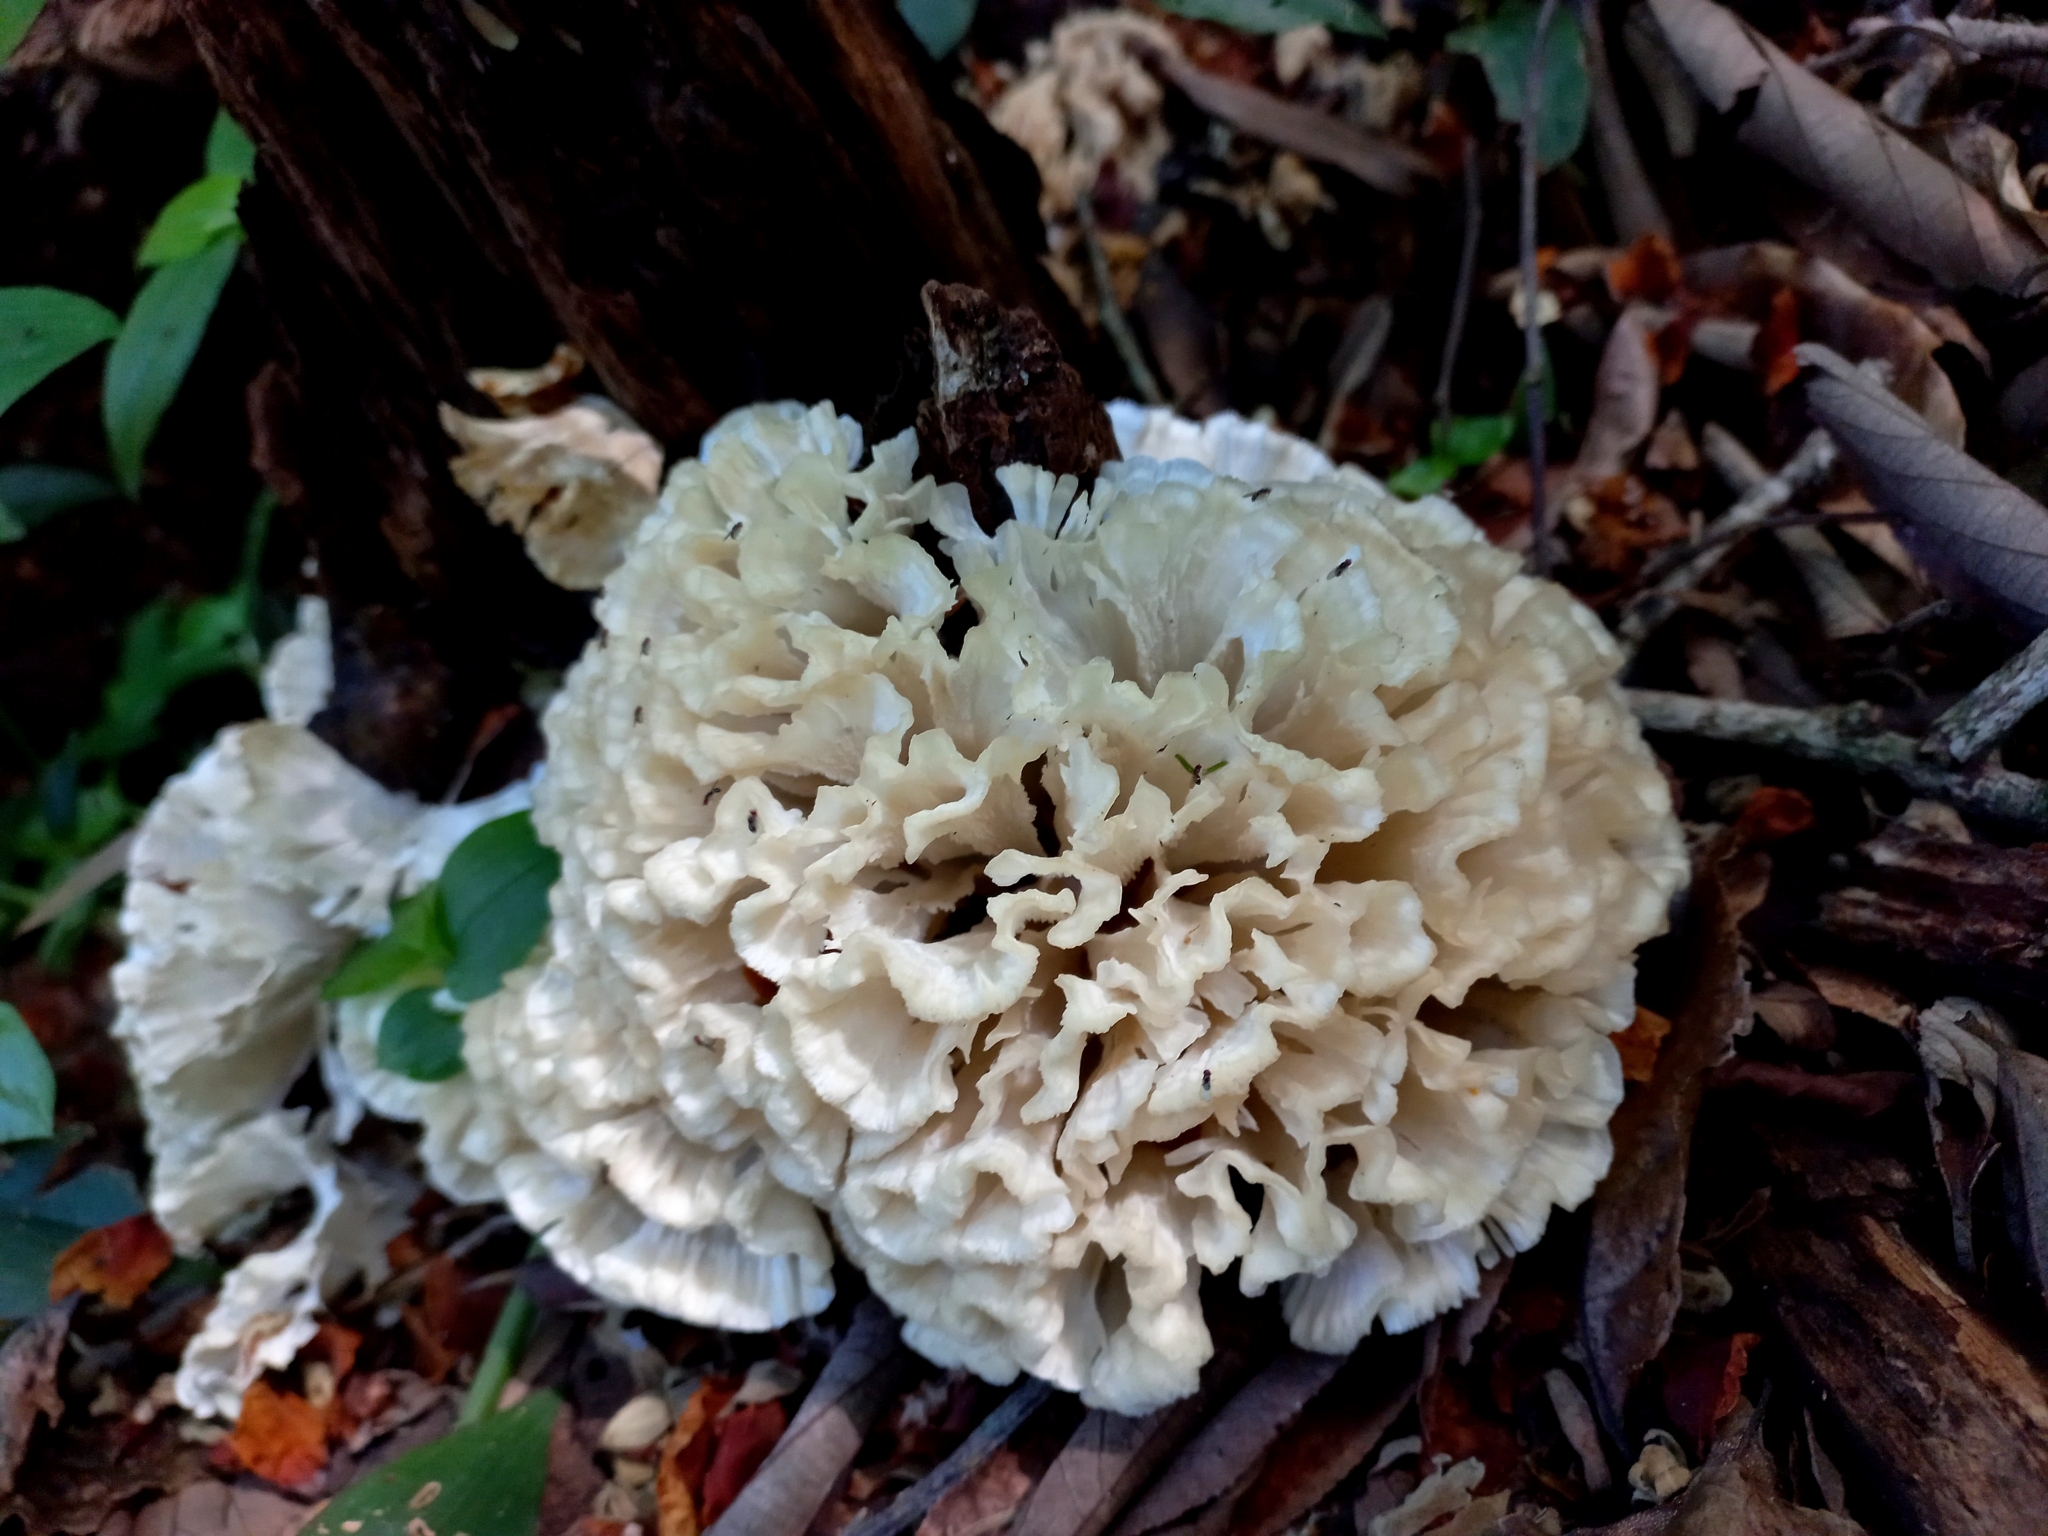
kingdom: Fungi
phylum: Basidiomycota
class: Agaricomycetes
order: Polyporales
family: Irpicaceae
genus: Irpex
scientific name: Irpex rosettiformis
